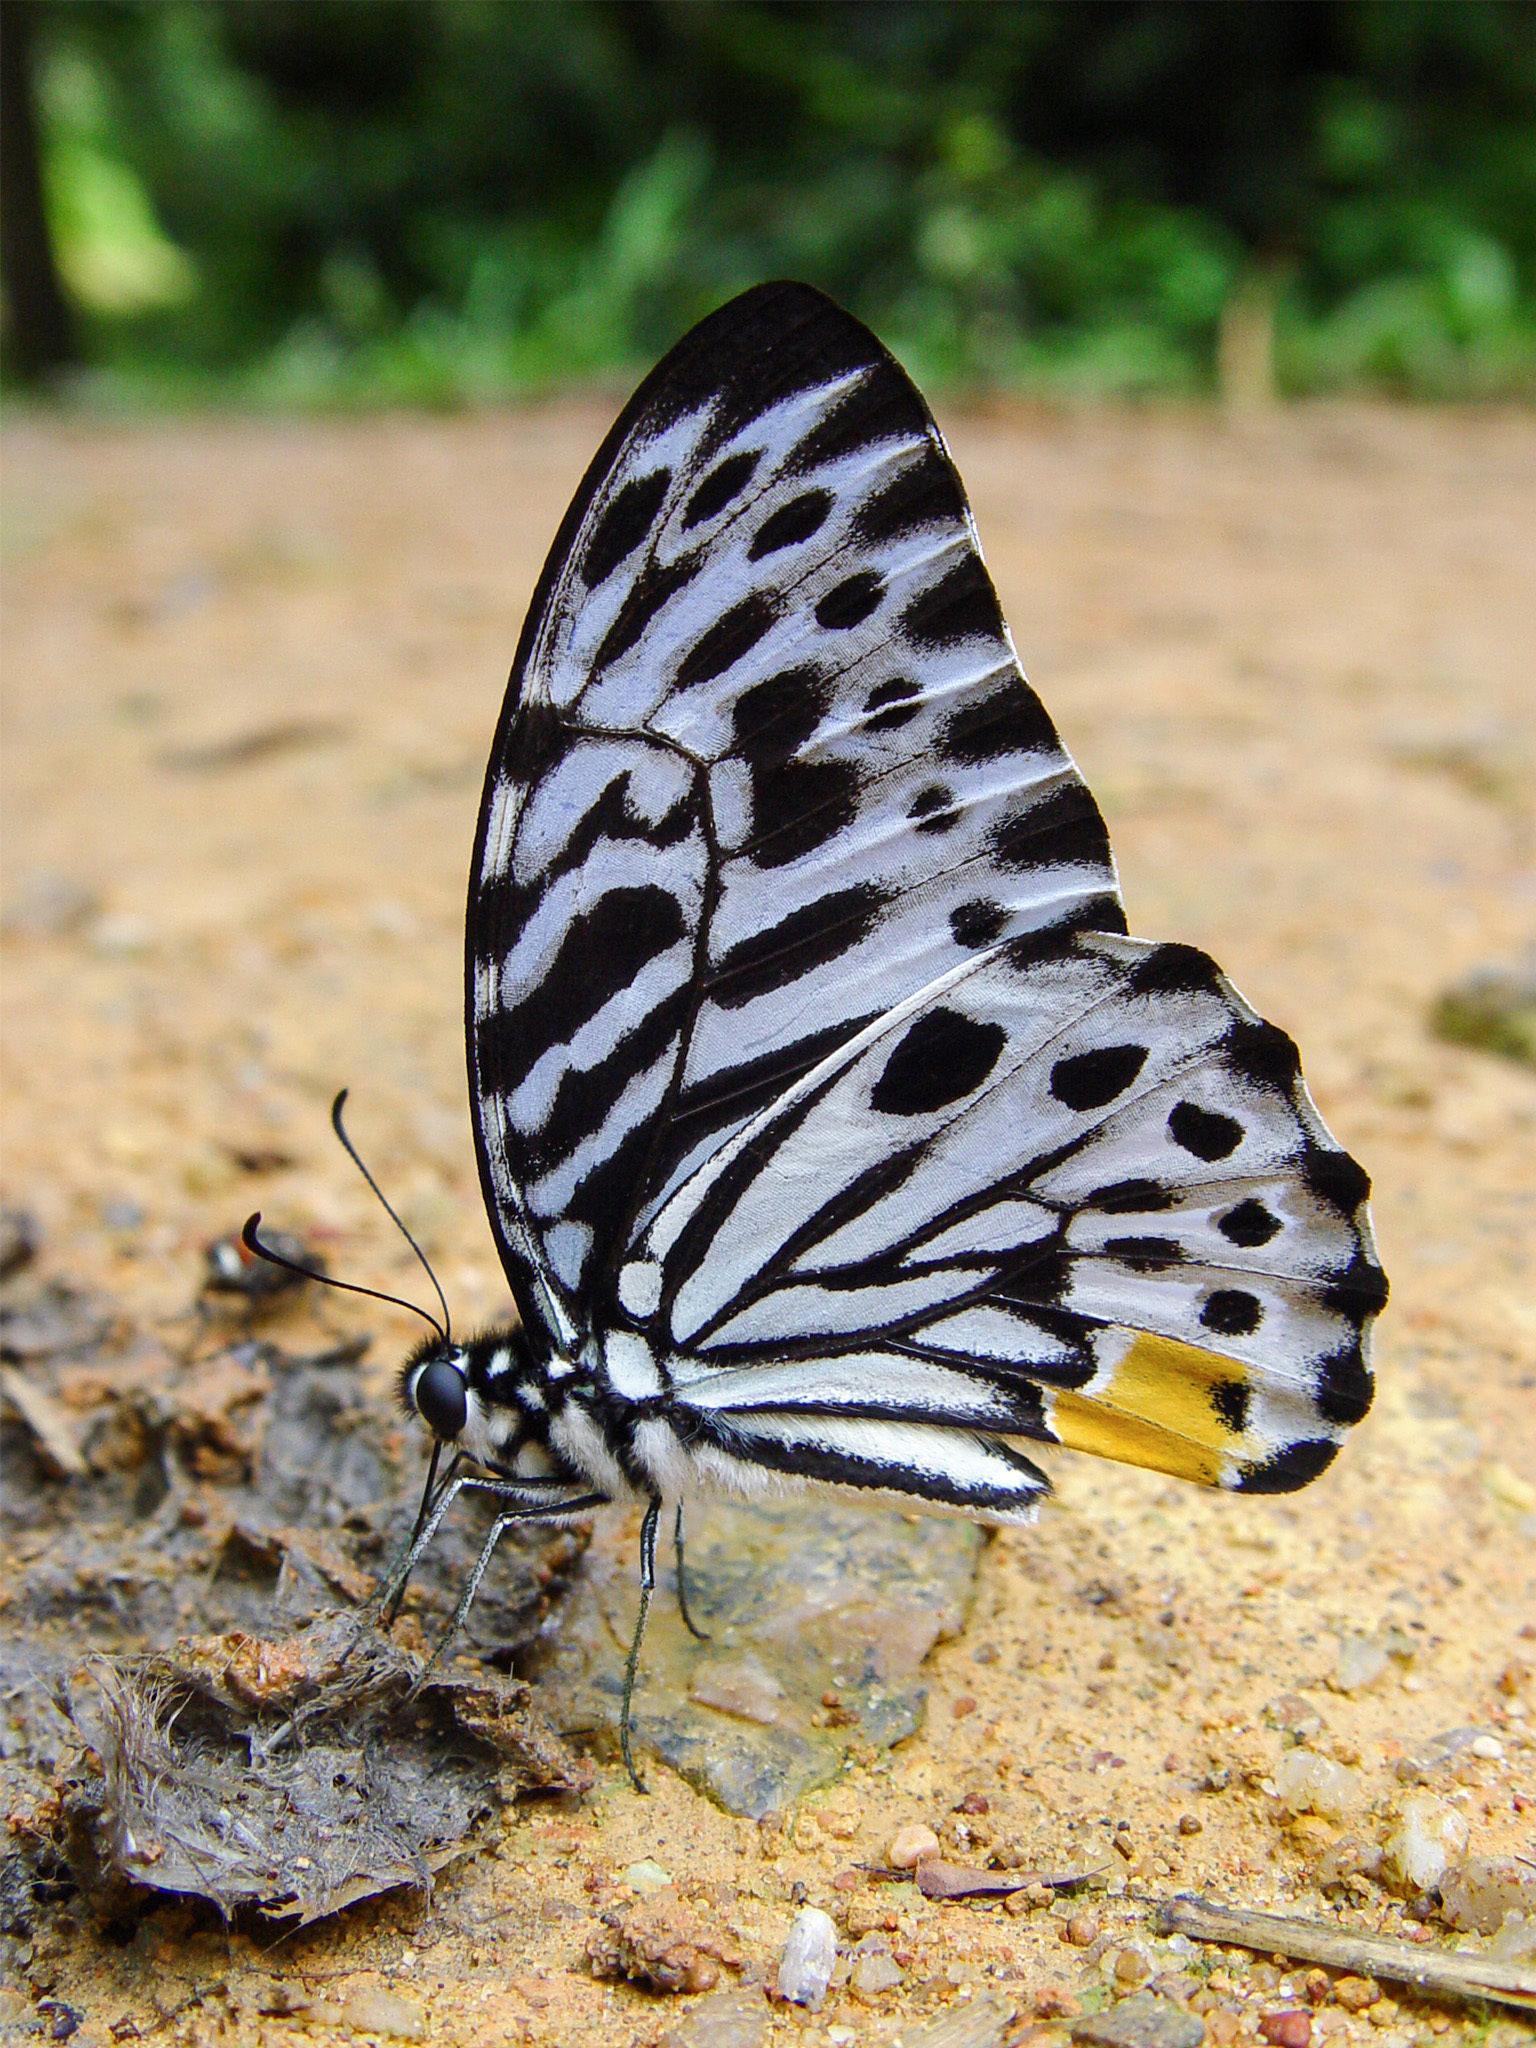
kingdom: Animalia
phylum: Arthropoda
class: Insecta
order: Lepidoptera
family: Papilionidae
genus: Graphium
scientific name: Graphium delesserti
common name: Malayan zebra
